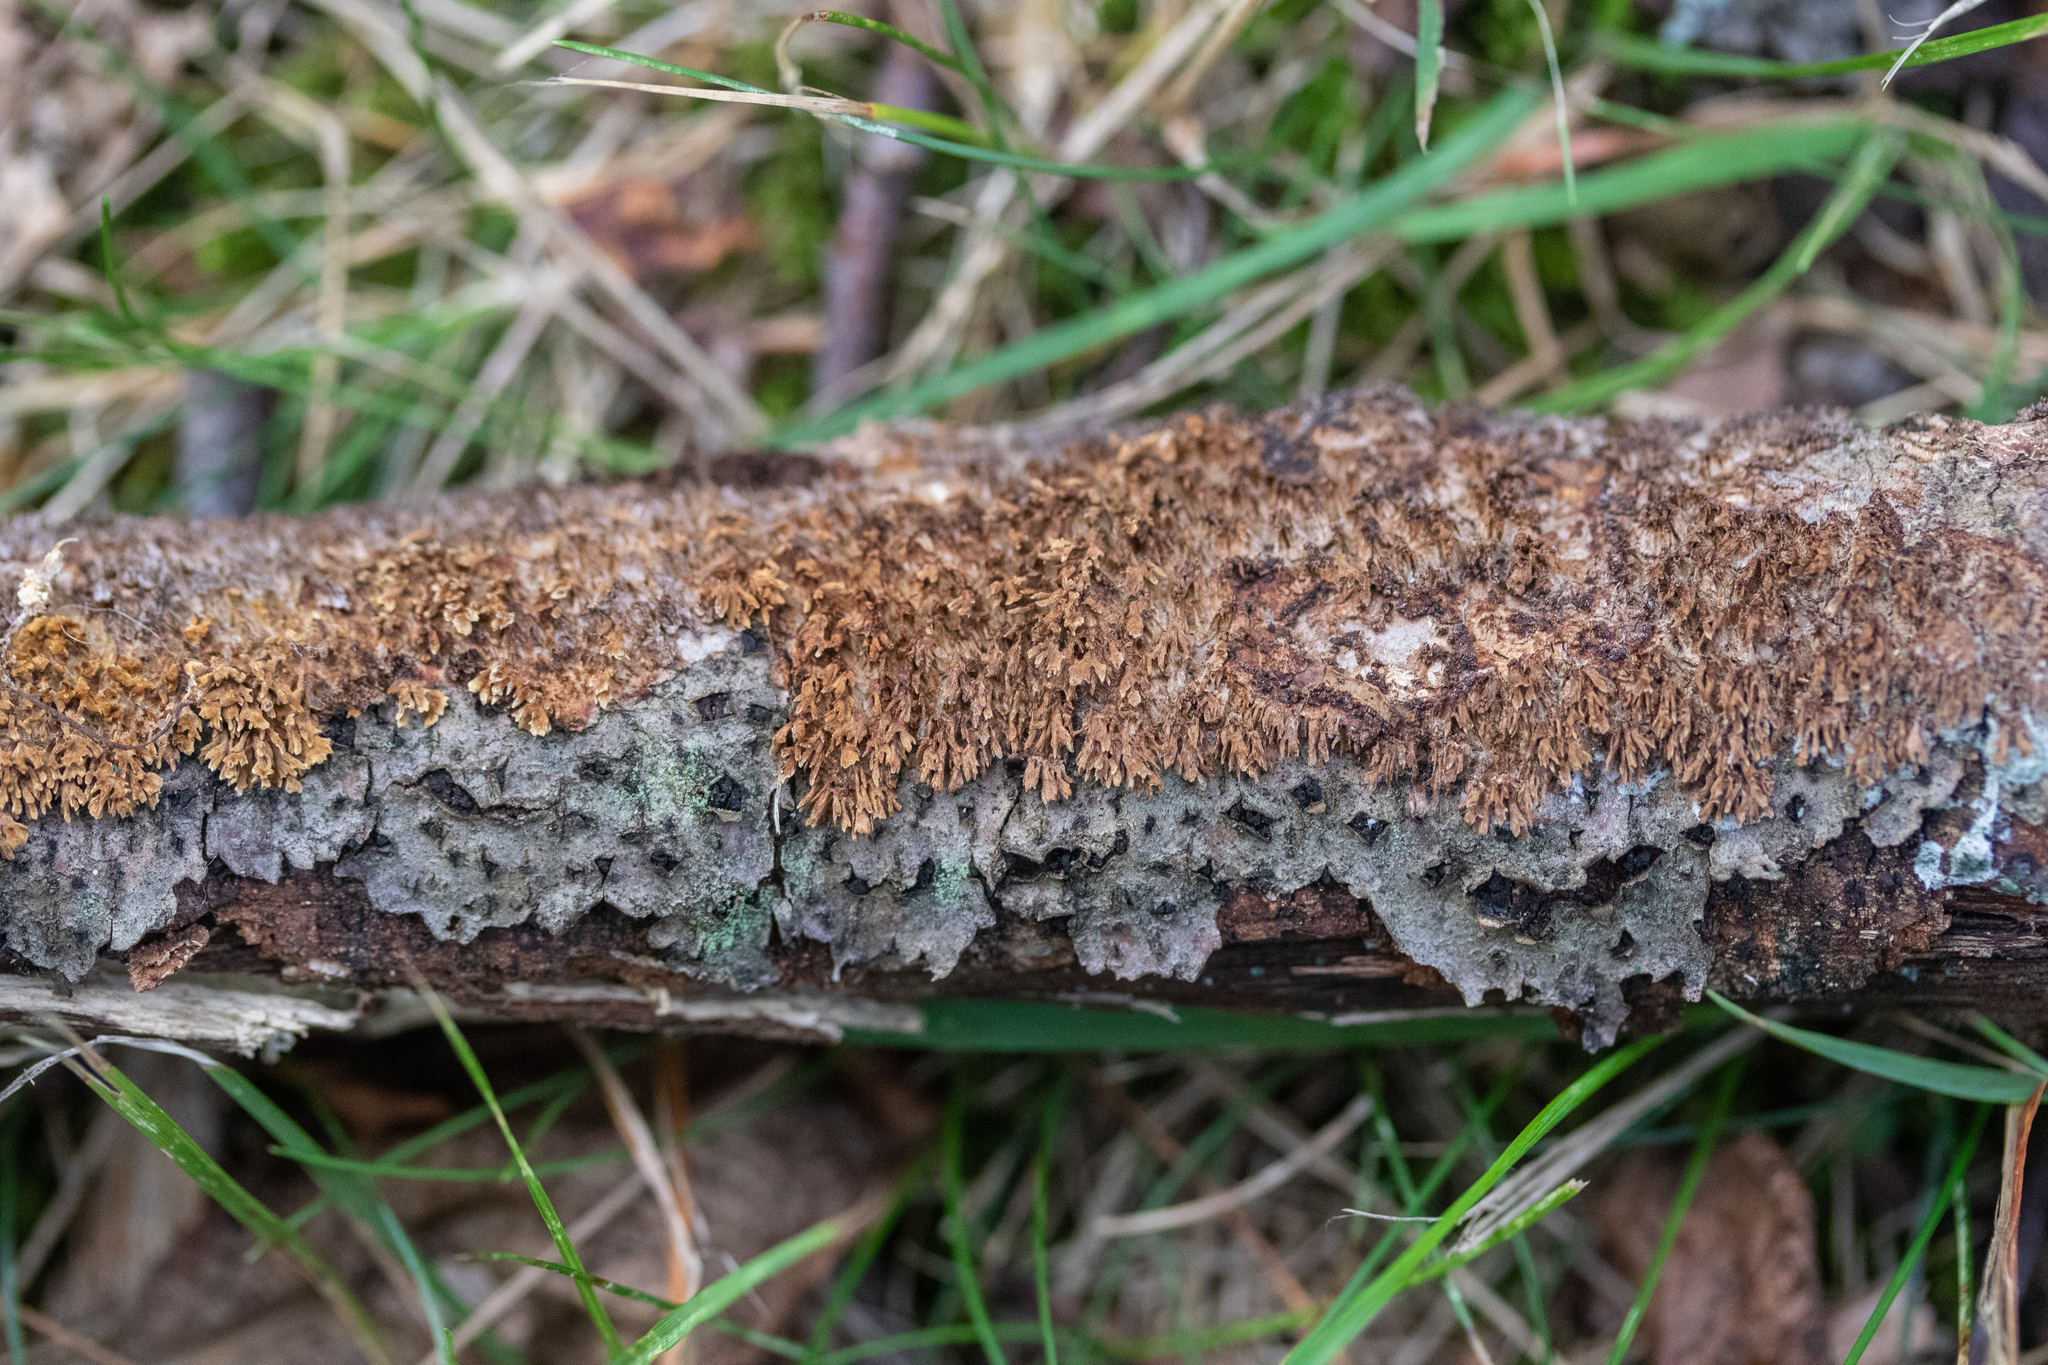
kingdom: Fungi
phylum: Basidiomycota
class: Agaricomycetes
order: Hymenochaetales
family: Hymenochaetaceae
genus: Hydnoporia
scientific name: Hydnoporia olivacea
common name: Brown-toothed crust fungus
